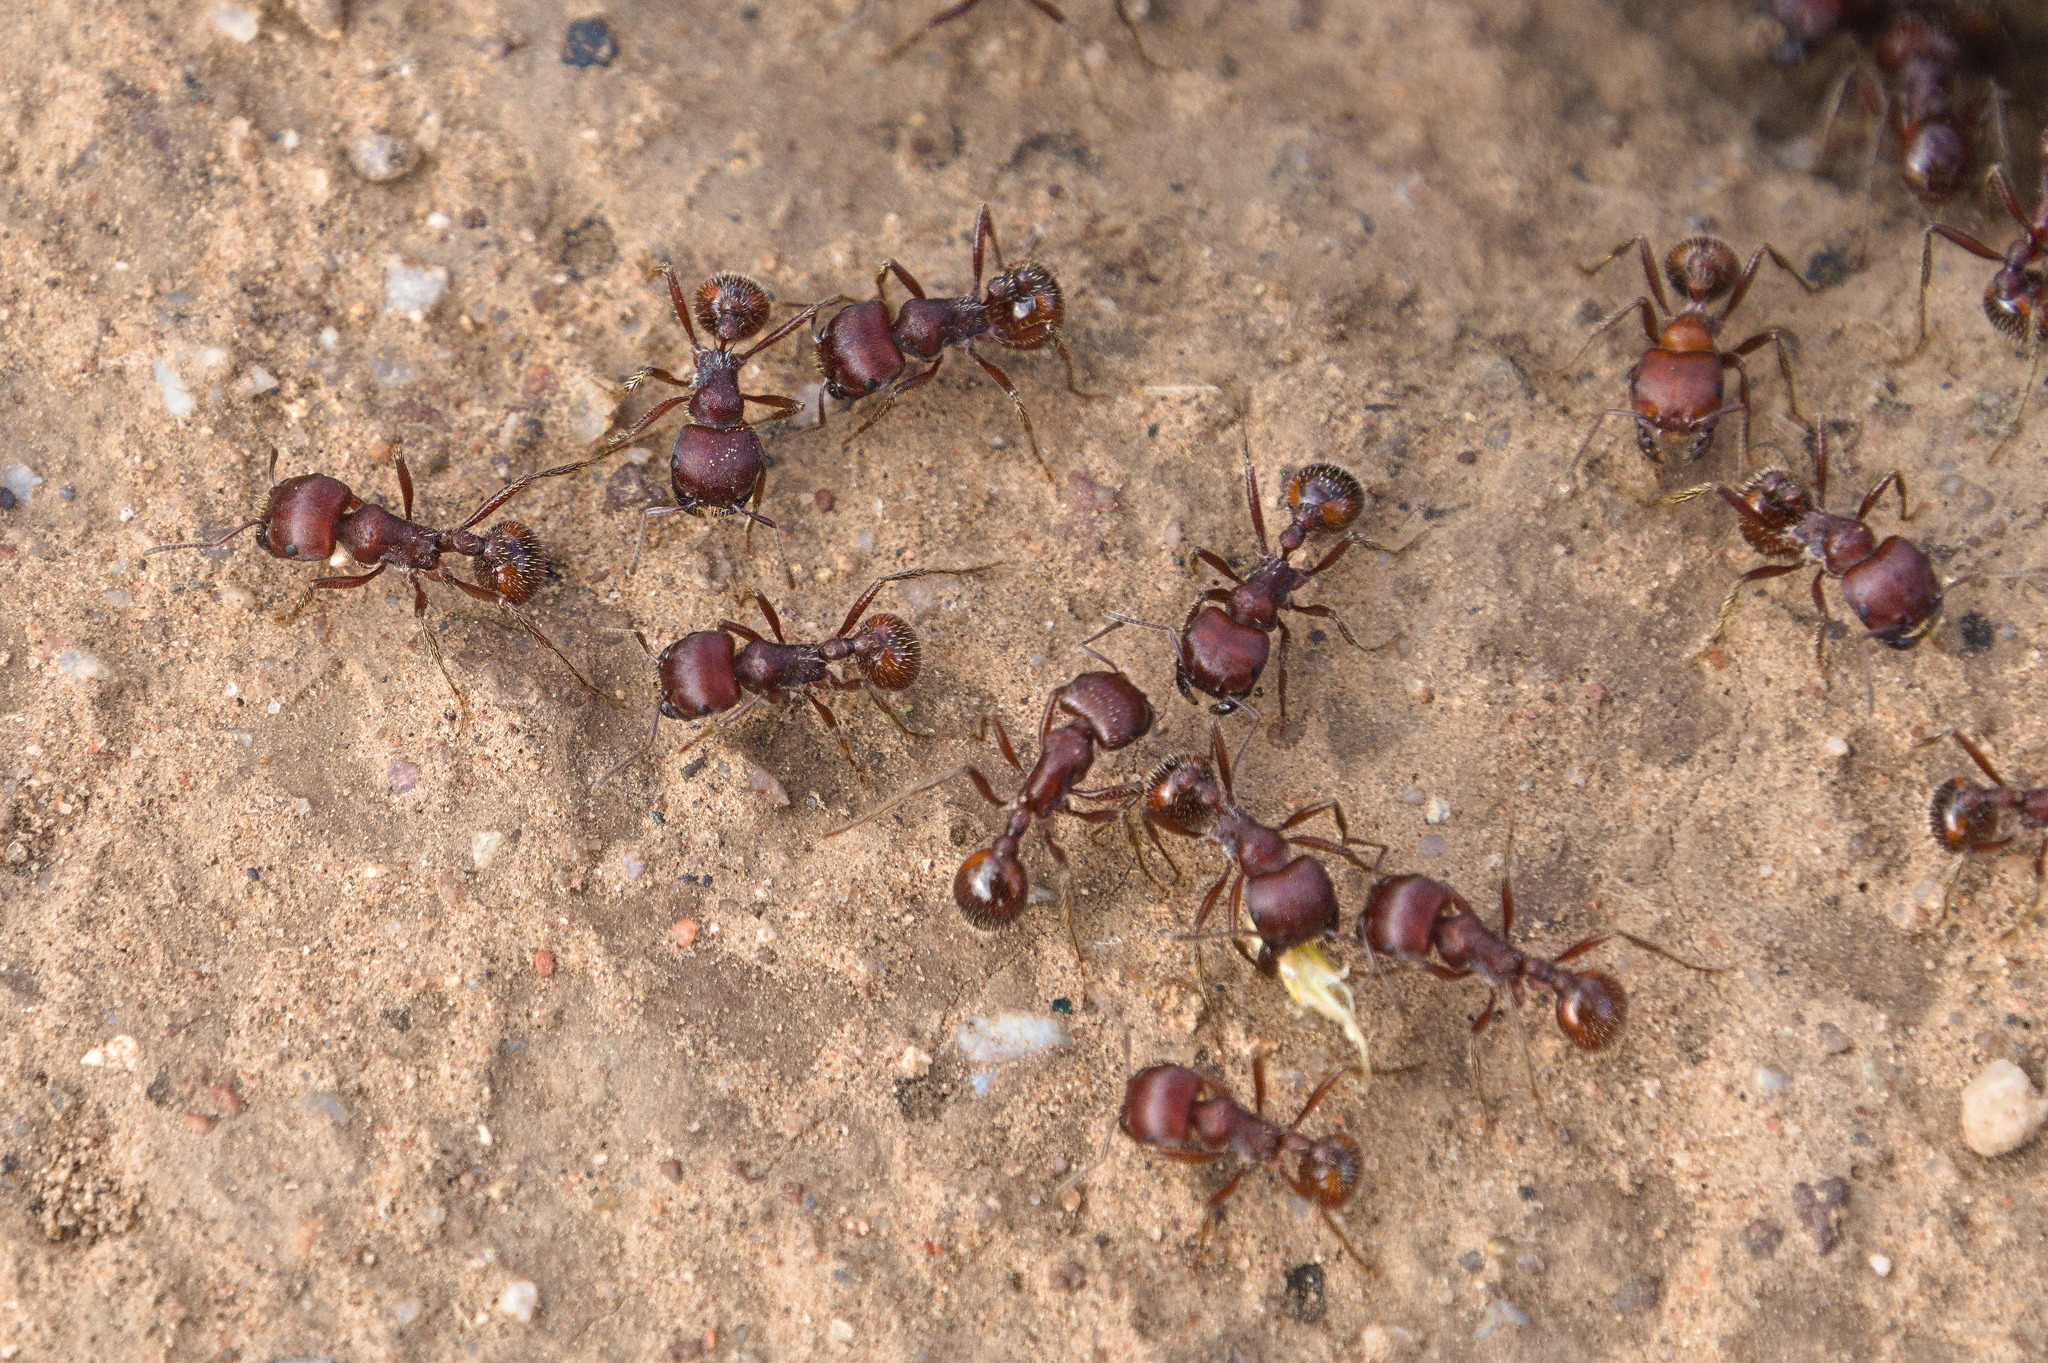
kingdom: Animalia
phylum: Arthropoda
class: Insecta
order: Hymenoptera
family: Formicidae
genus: Pogonomyrmex
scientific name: Pogonomyrmex barbatus
